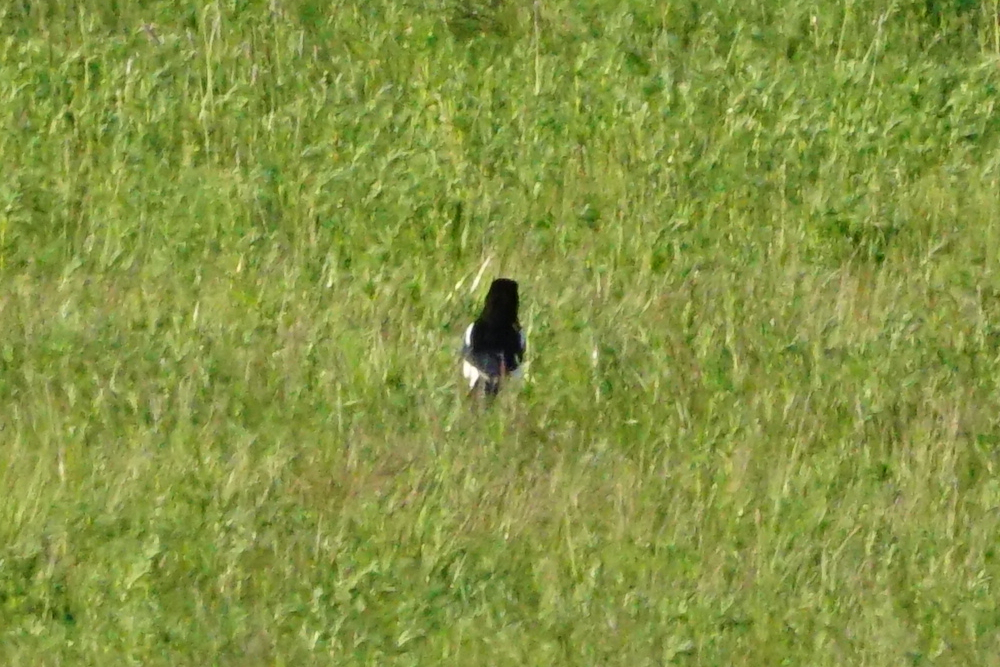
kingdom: Animalia
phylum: Chordata
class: Aves
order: Passeriformes
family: Corvidae
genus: Pica
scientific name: Pica pica
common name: Eurasian magpie
